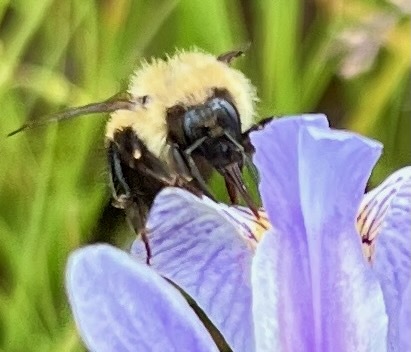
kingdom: Animalia
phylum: Arthropoda
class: Insecta
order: Hymenoptera
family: Apidae
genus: Pyrobombus
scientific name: Pyrobombus
